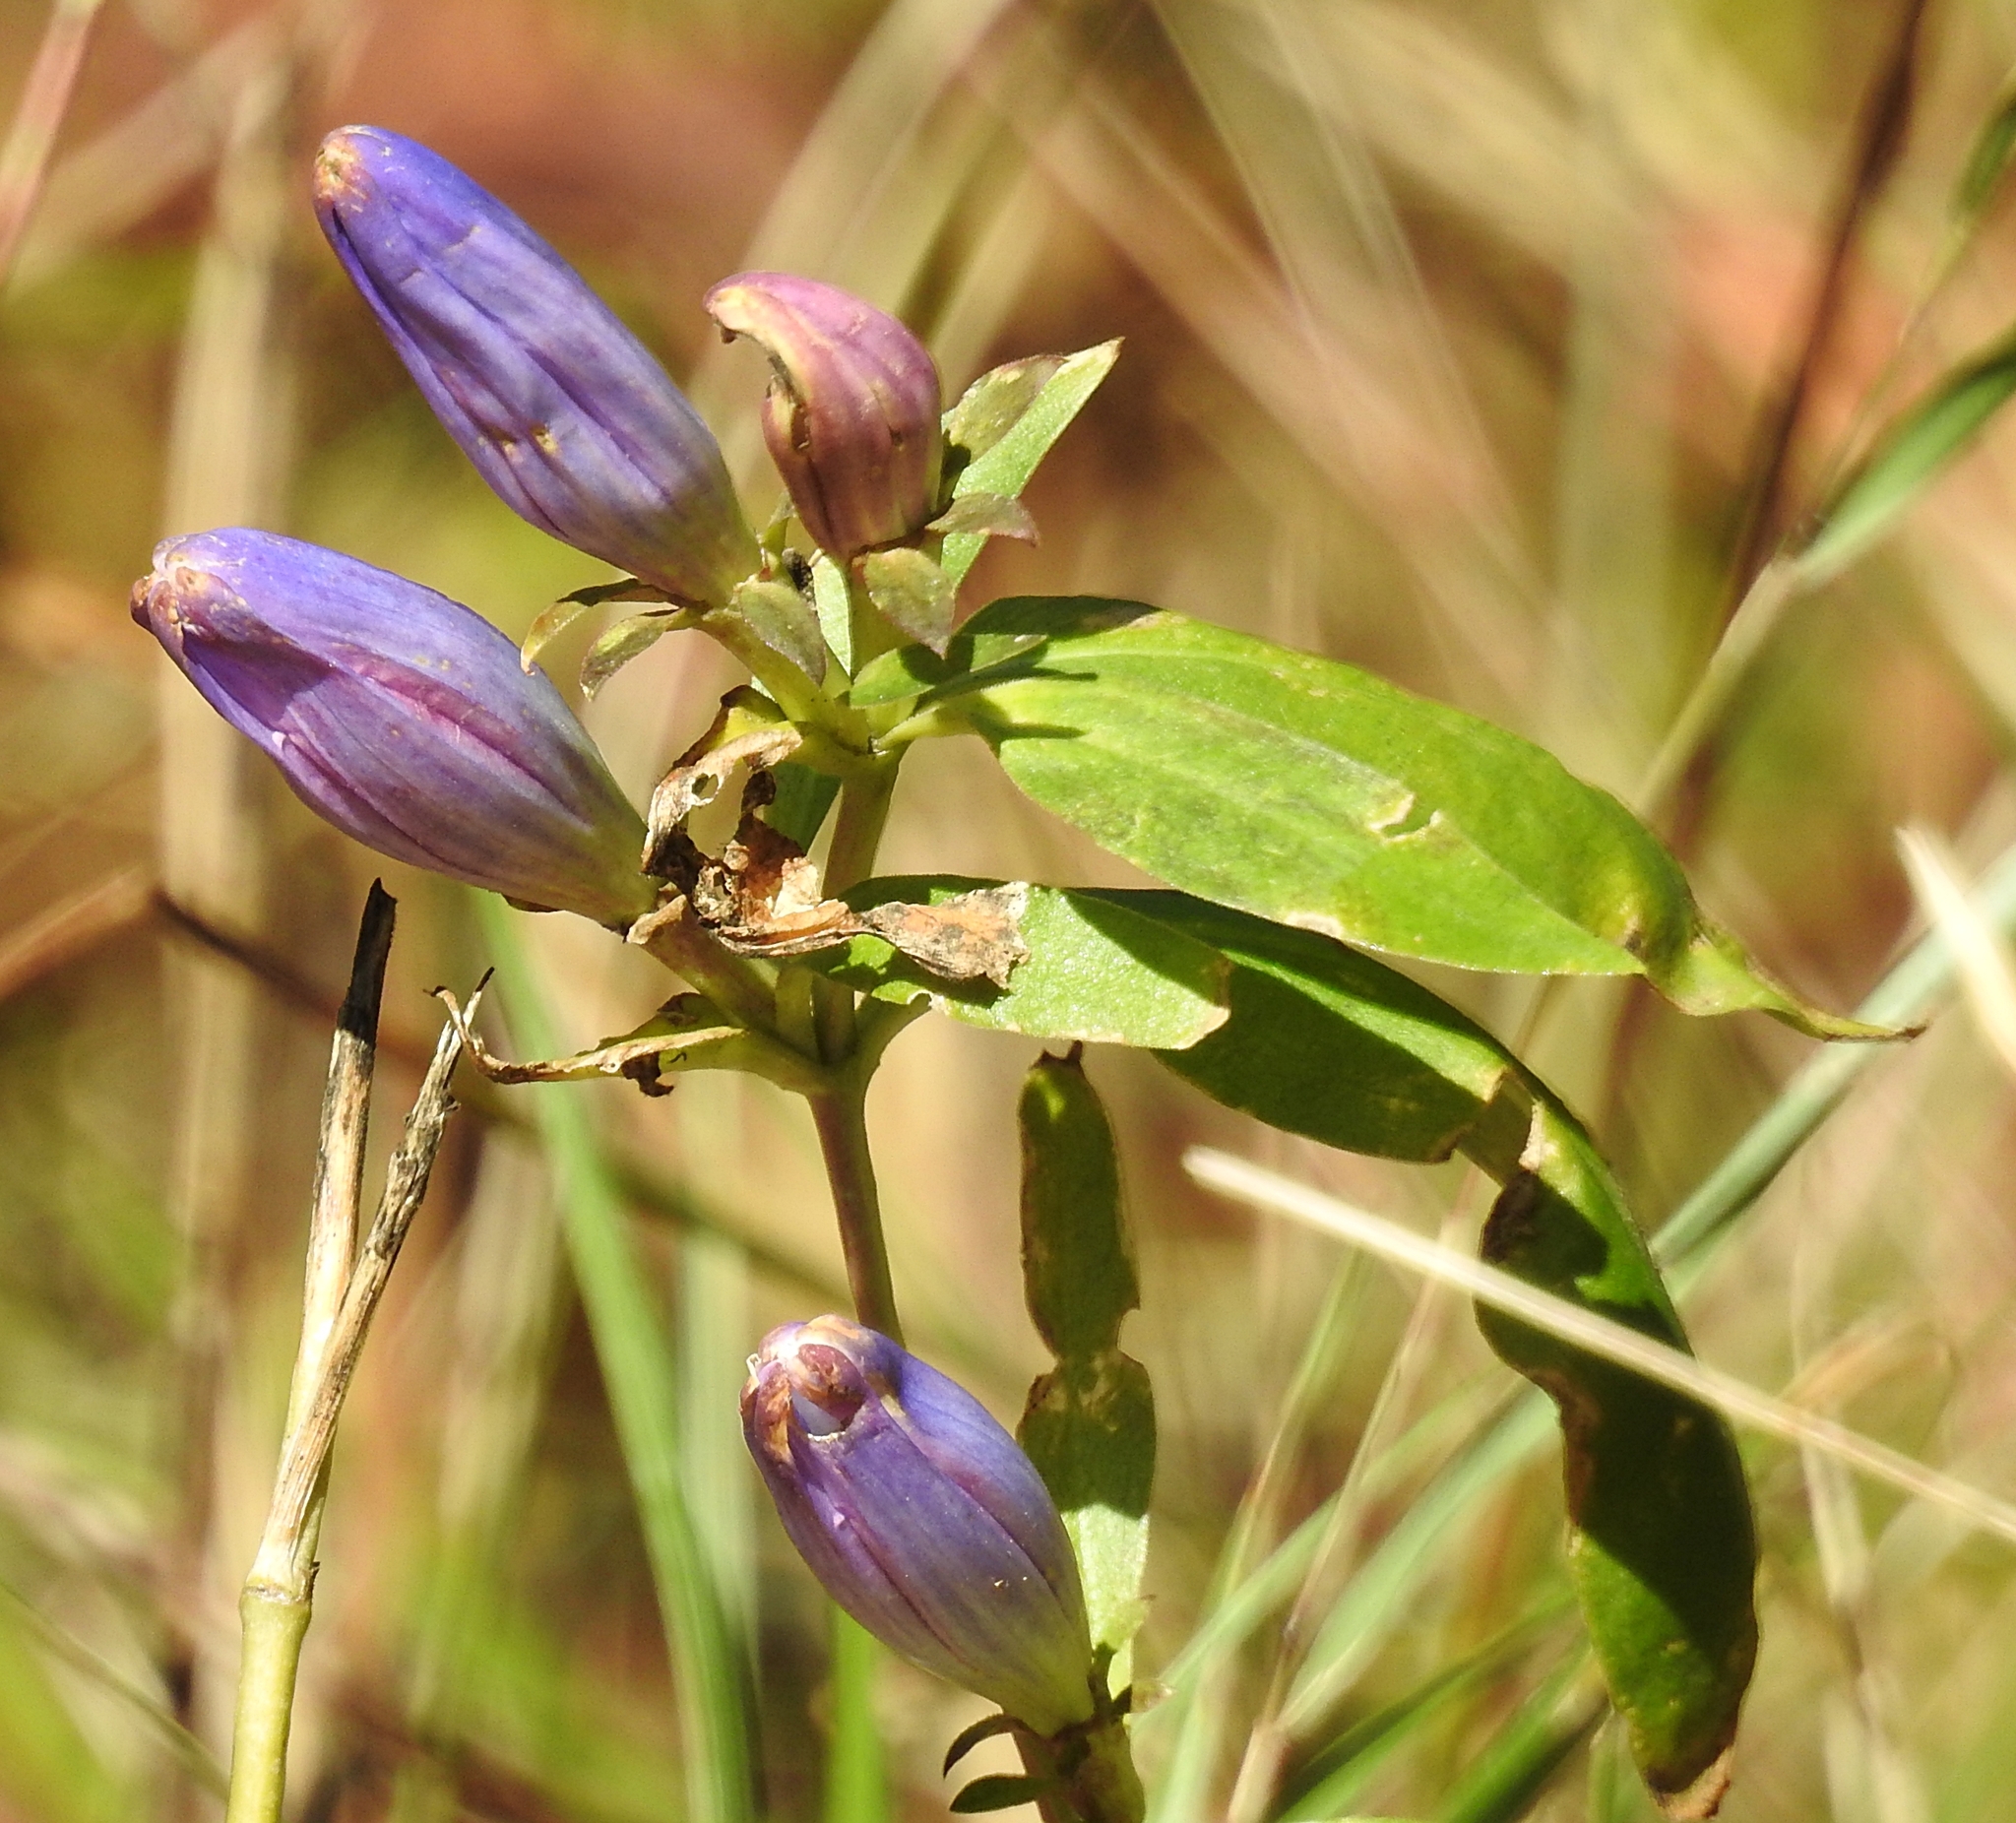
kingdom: Plantae
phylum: Tracheophyta
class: Magnoliopsida
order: Gentianales
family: Gentianaceae
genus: Gentiana
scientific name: Gentiana andrewsii
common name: Bottle gentian
